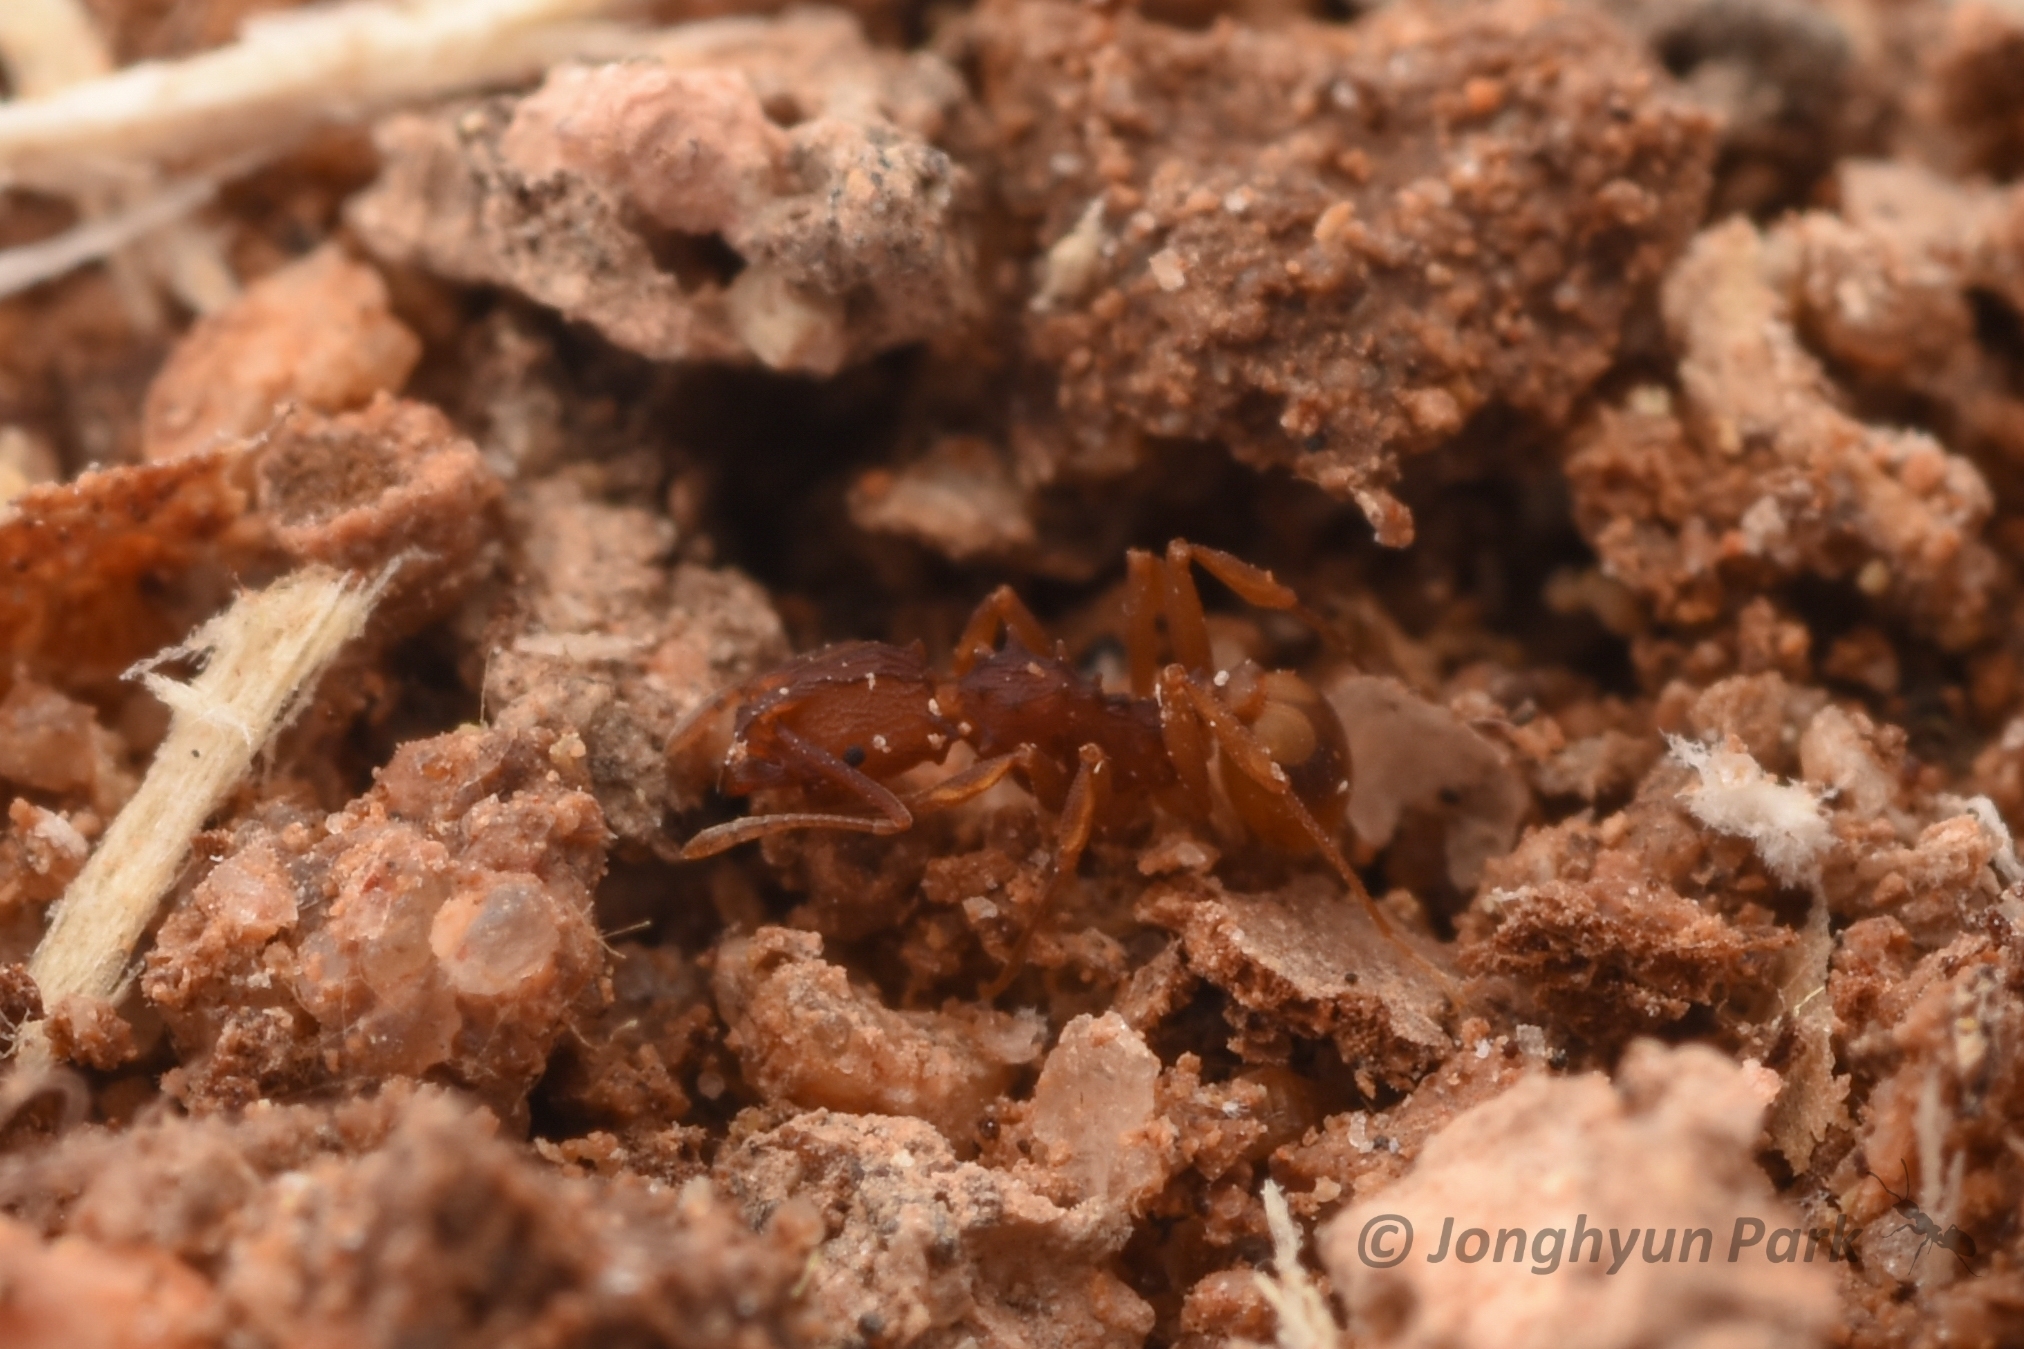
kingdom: Animalia
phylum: Arthropoda
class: Insecta
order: Hymenoptera
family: Formicidae
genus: Proatta
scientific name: Proatta butteli
